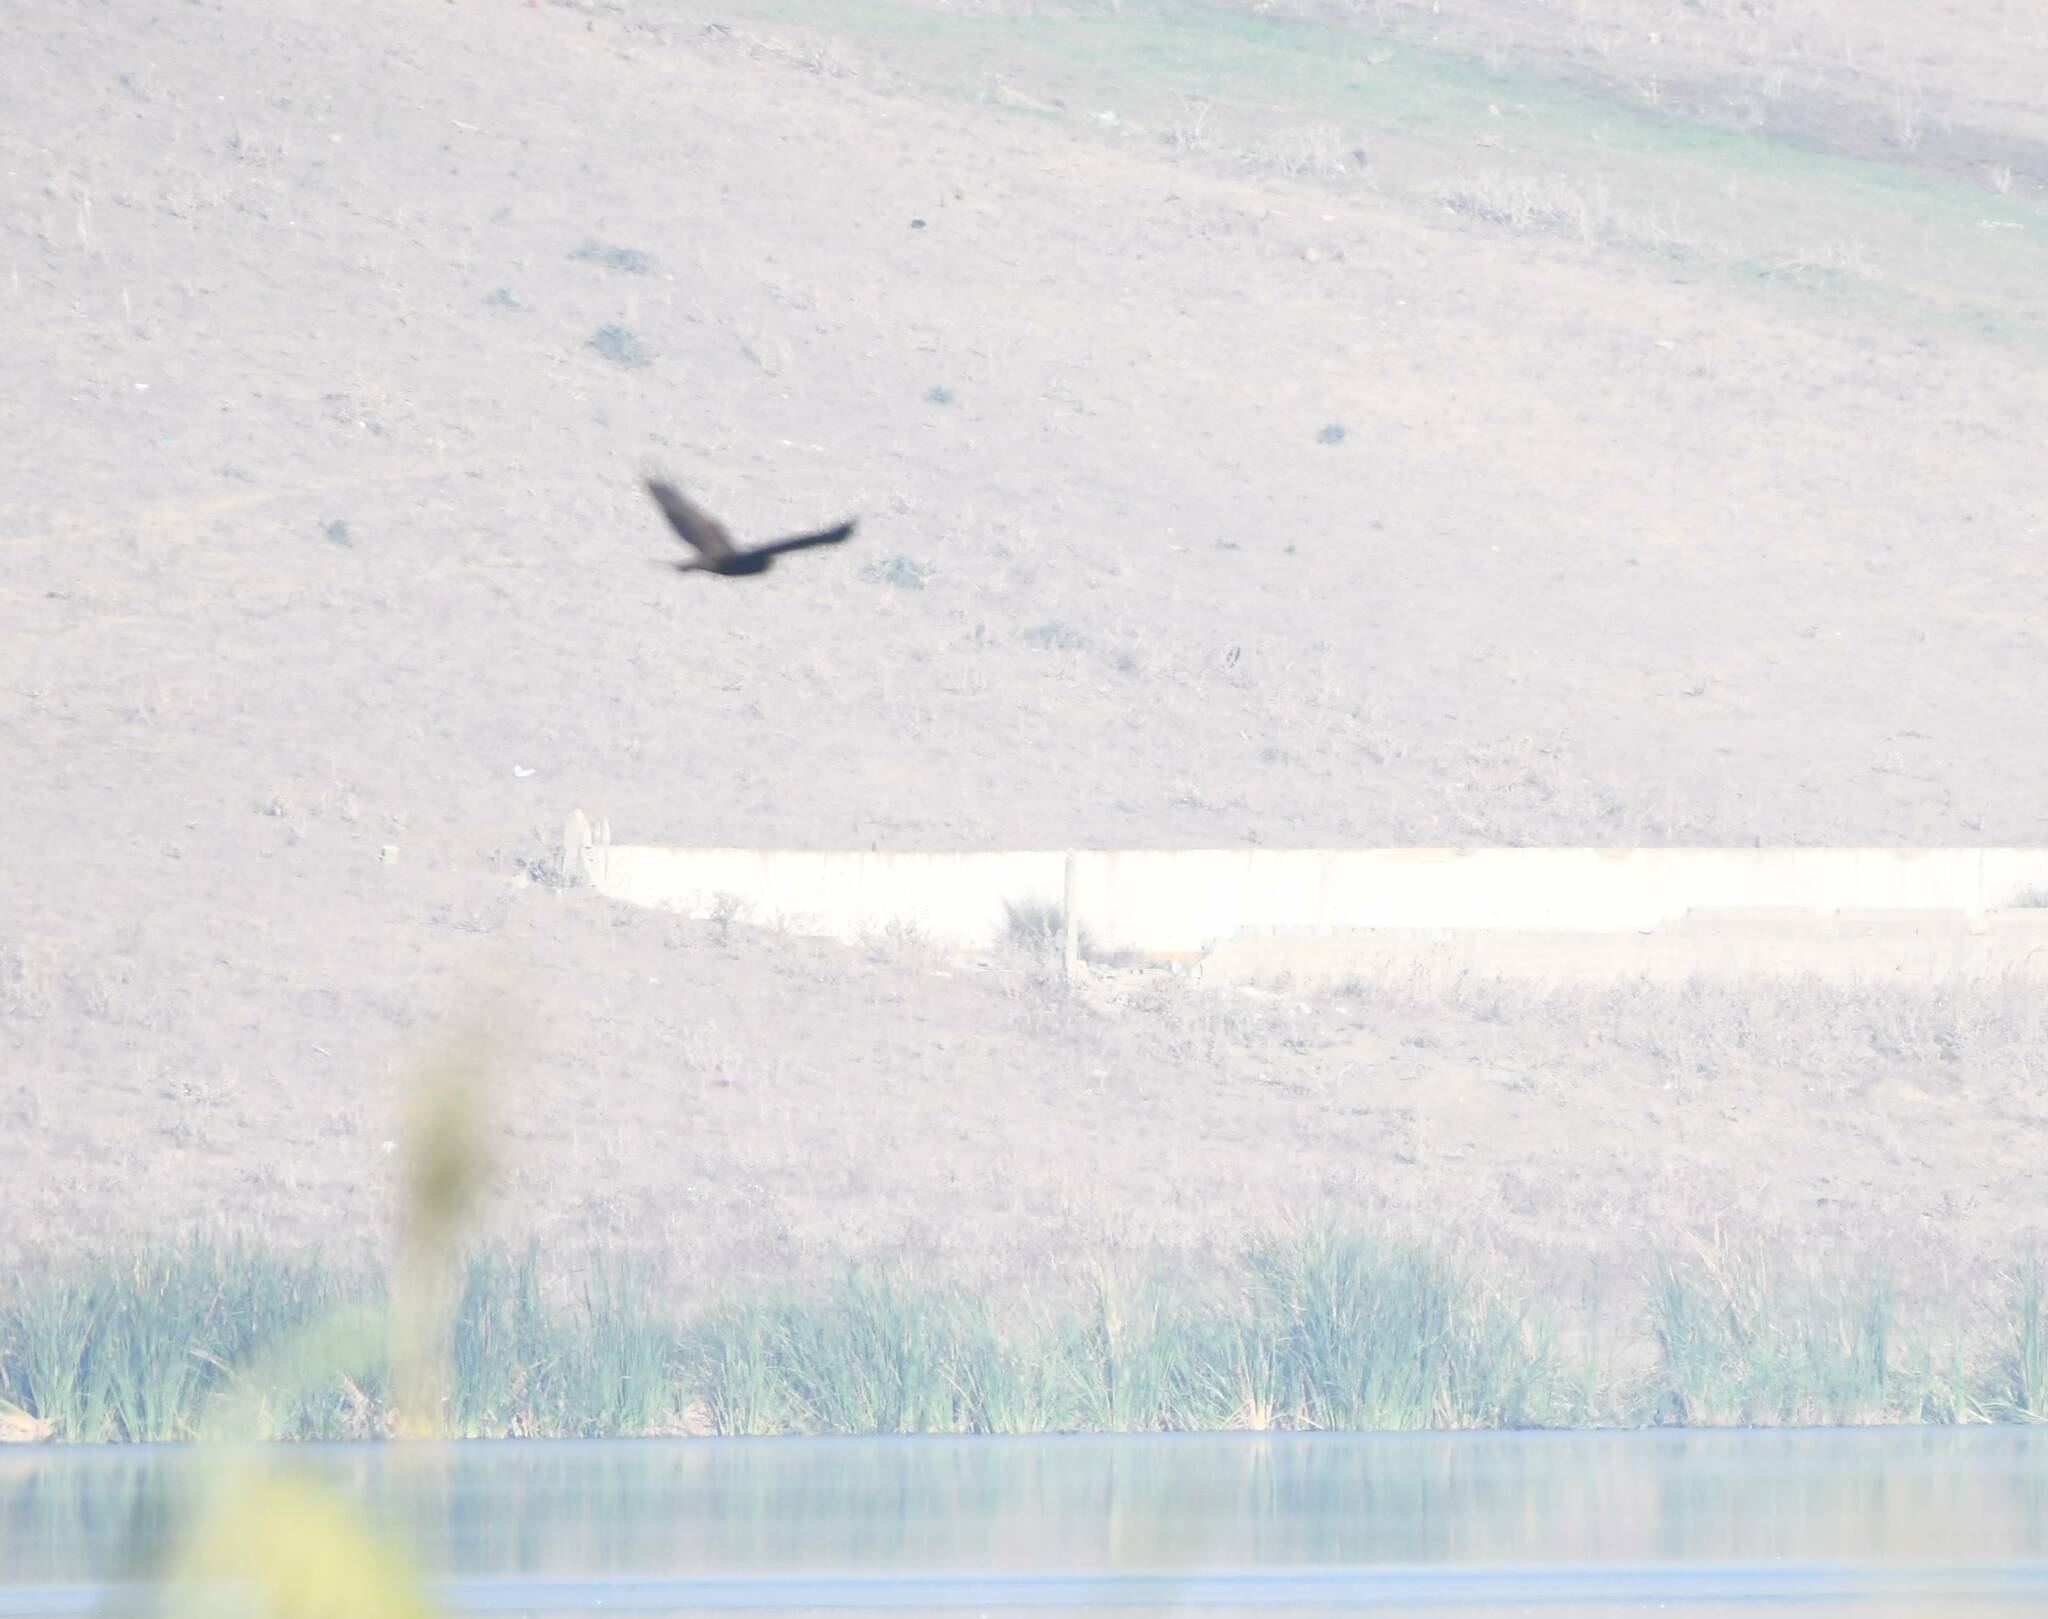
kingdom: Animalia
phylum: Chordata
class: Aves
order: Accipitriformes
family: Accipitridae
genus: Circus
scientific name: Circus aeruginosus
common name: Western marsh harrier
